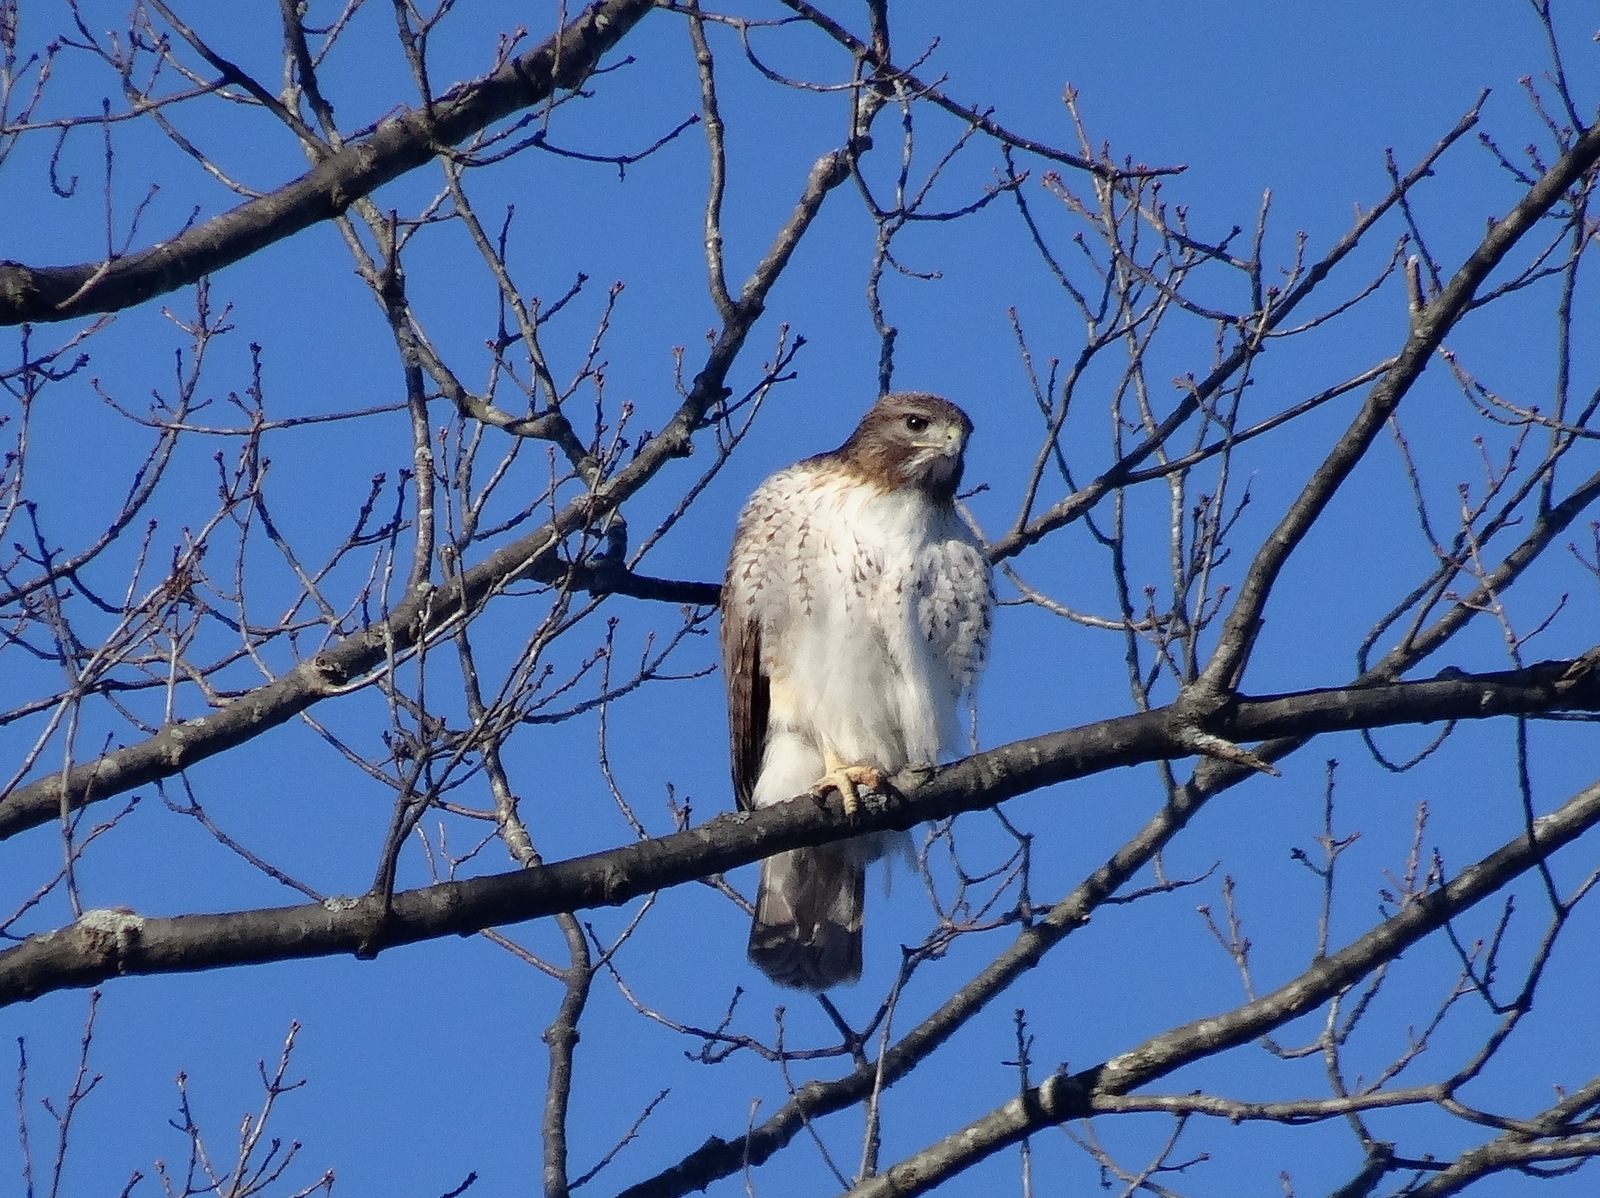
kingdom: Animalia
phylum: Chordata
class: Aves
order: Accipitriformes
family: Accipitridae
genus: Buteo
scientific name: Buteo jamaicensis
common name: Red-tailed hawk
